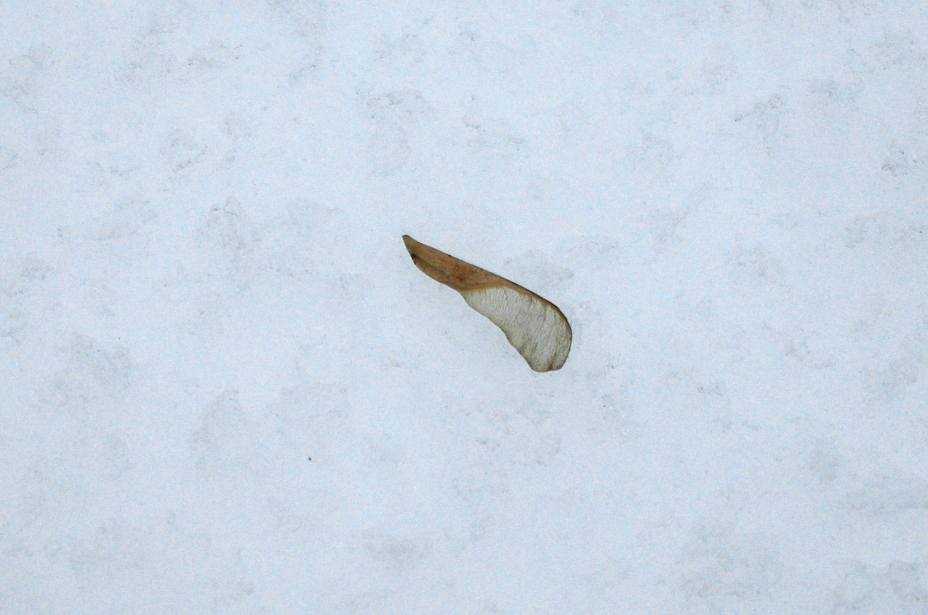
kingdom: Plantae
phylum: Tracheophyta
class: Magnoliopsida
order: Sapindales
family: Sapindaceae
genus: Acer
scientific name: Acer negundo
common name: Ashleaf maple
